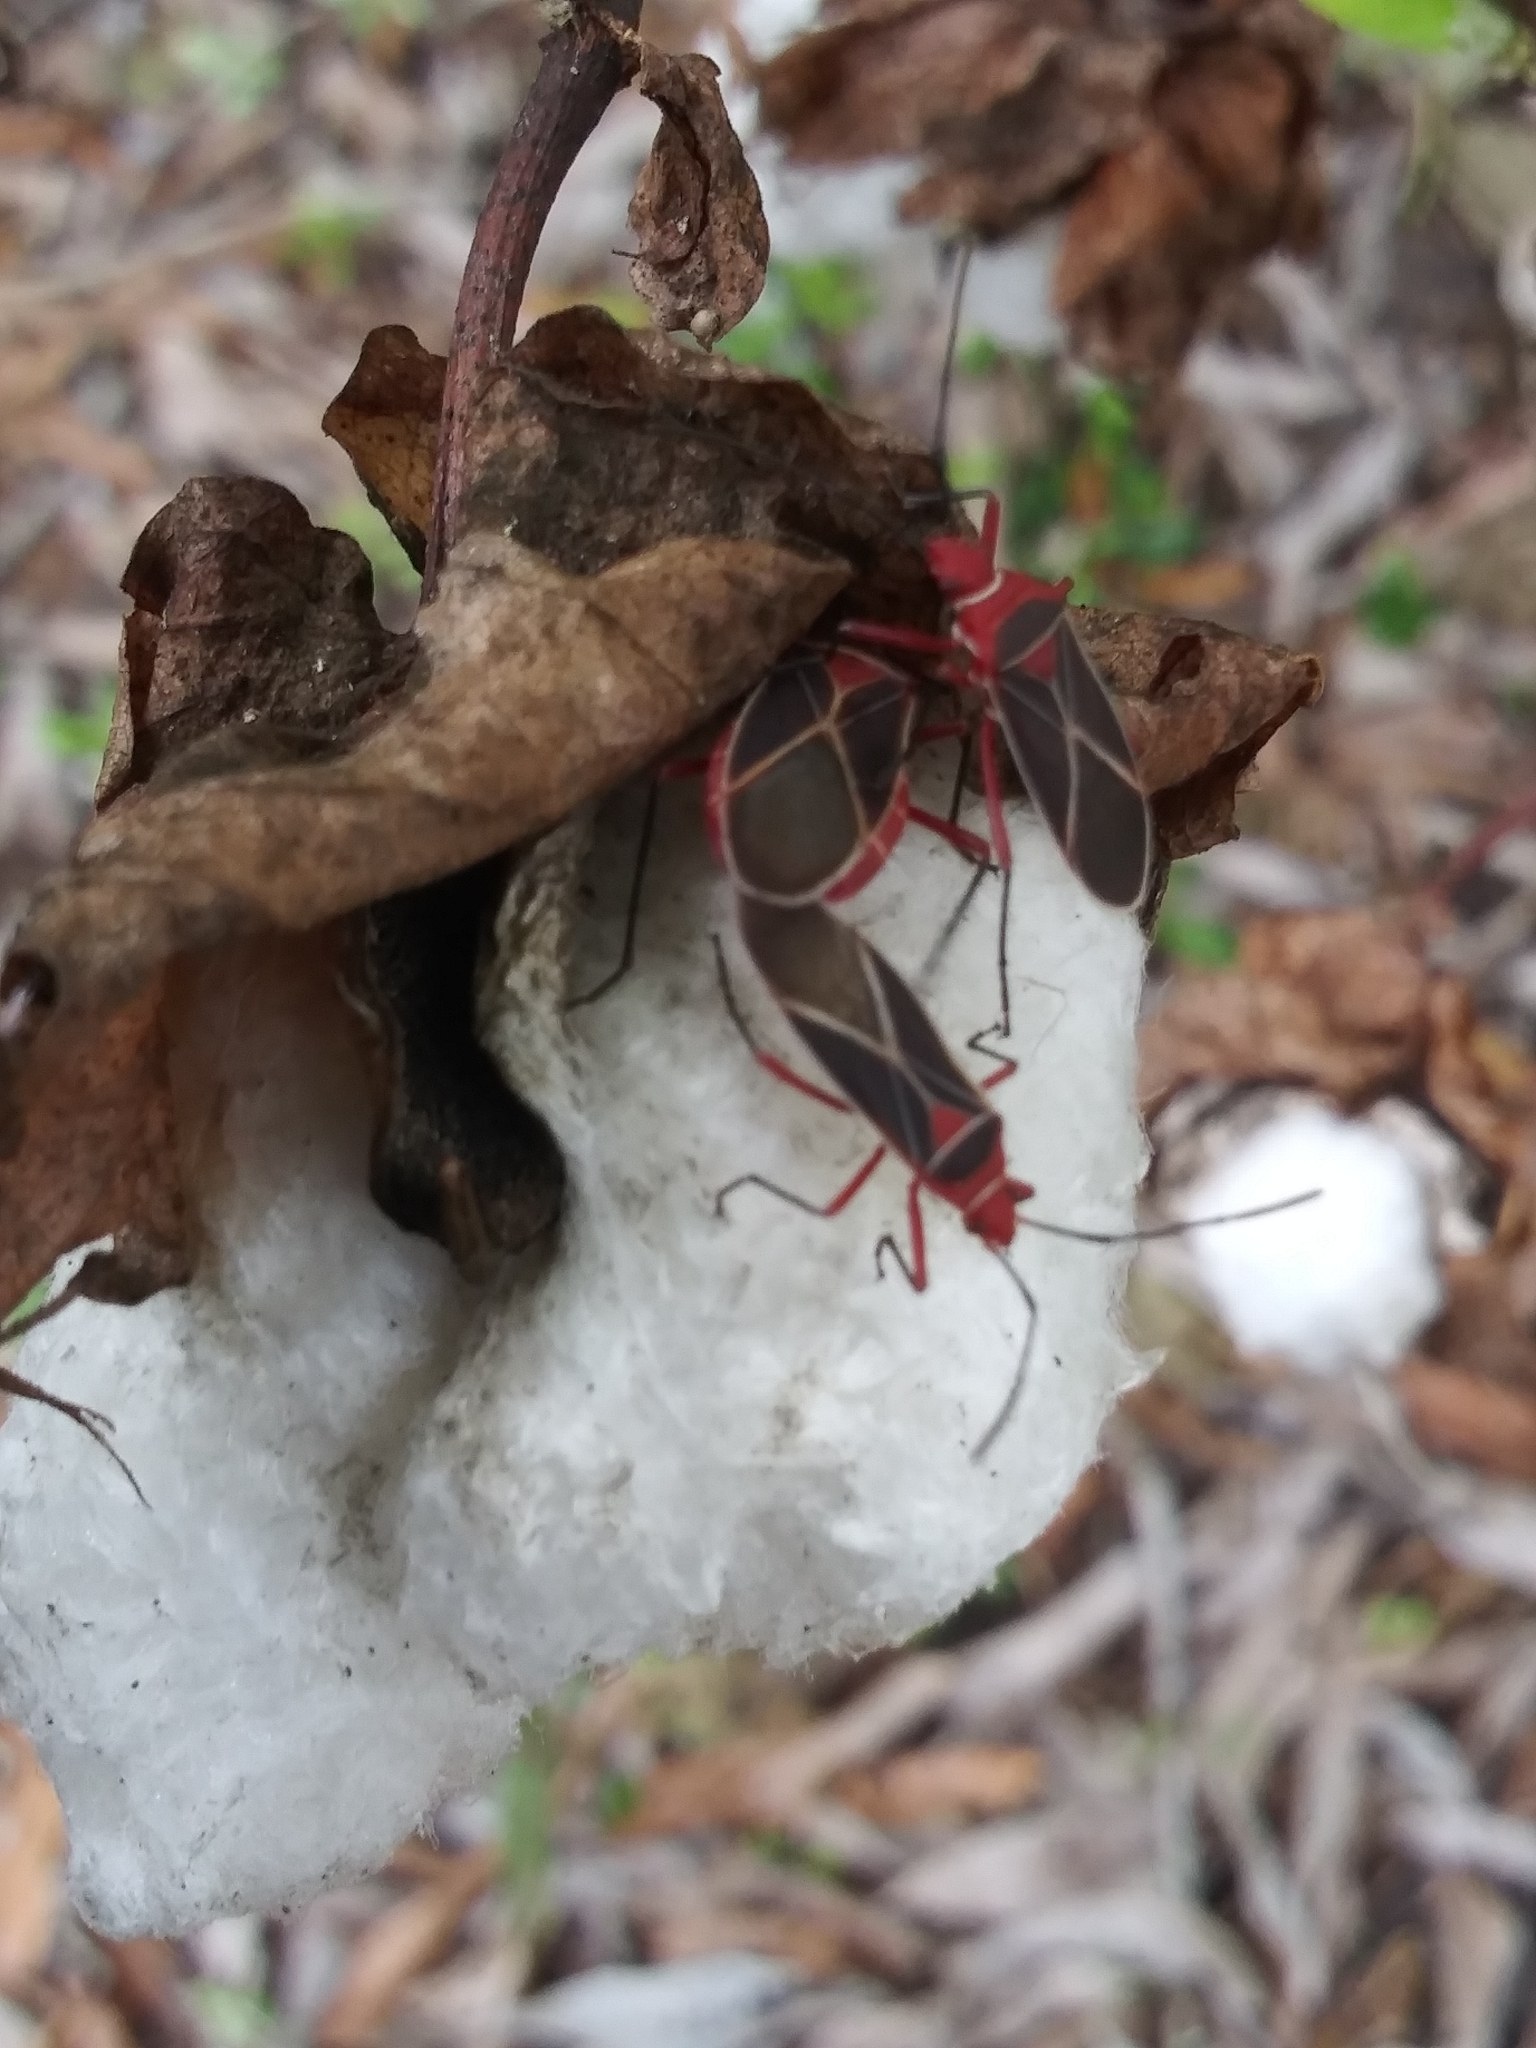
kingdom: Animalia
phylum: Arthropoda
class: Insecta
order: Hemiptera
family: Pyrrhocoridae
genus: Dysdercus
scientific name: Dysdercus suturellus
